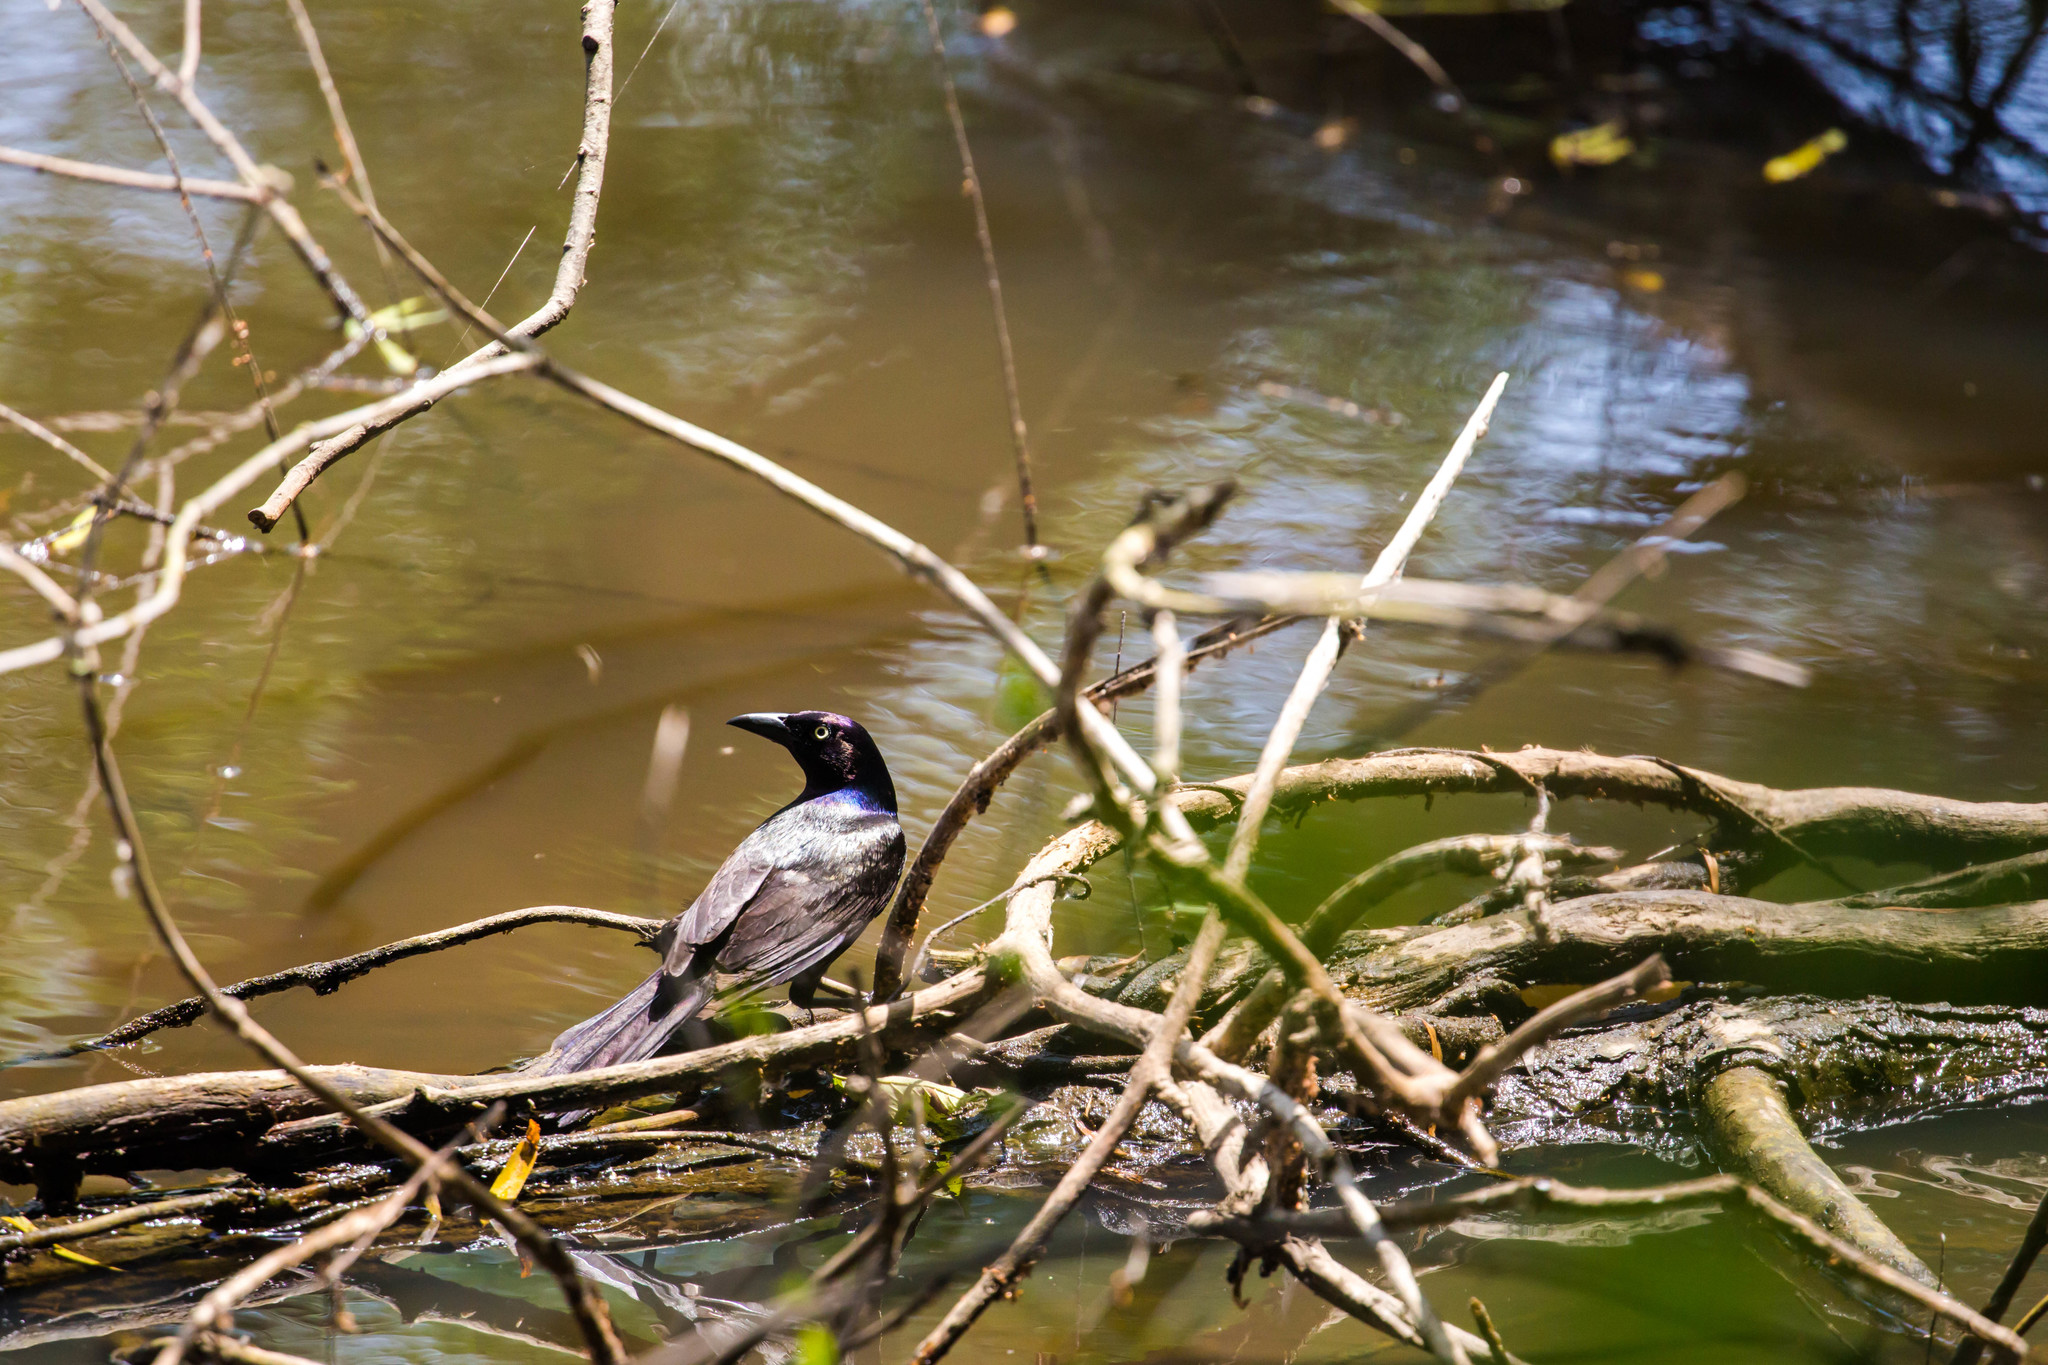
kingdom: Animalia
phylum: Chordata
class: Aves
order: Passeriformes
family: Icteridae
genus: Quiscalus
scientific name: Quiscalus quiscula
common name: Common grackle
